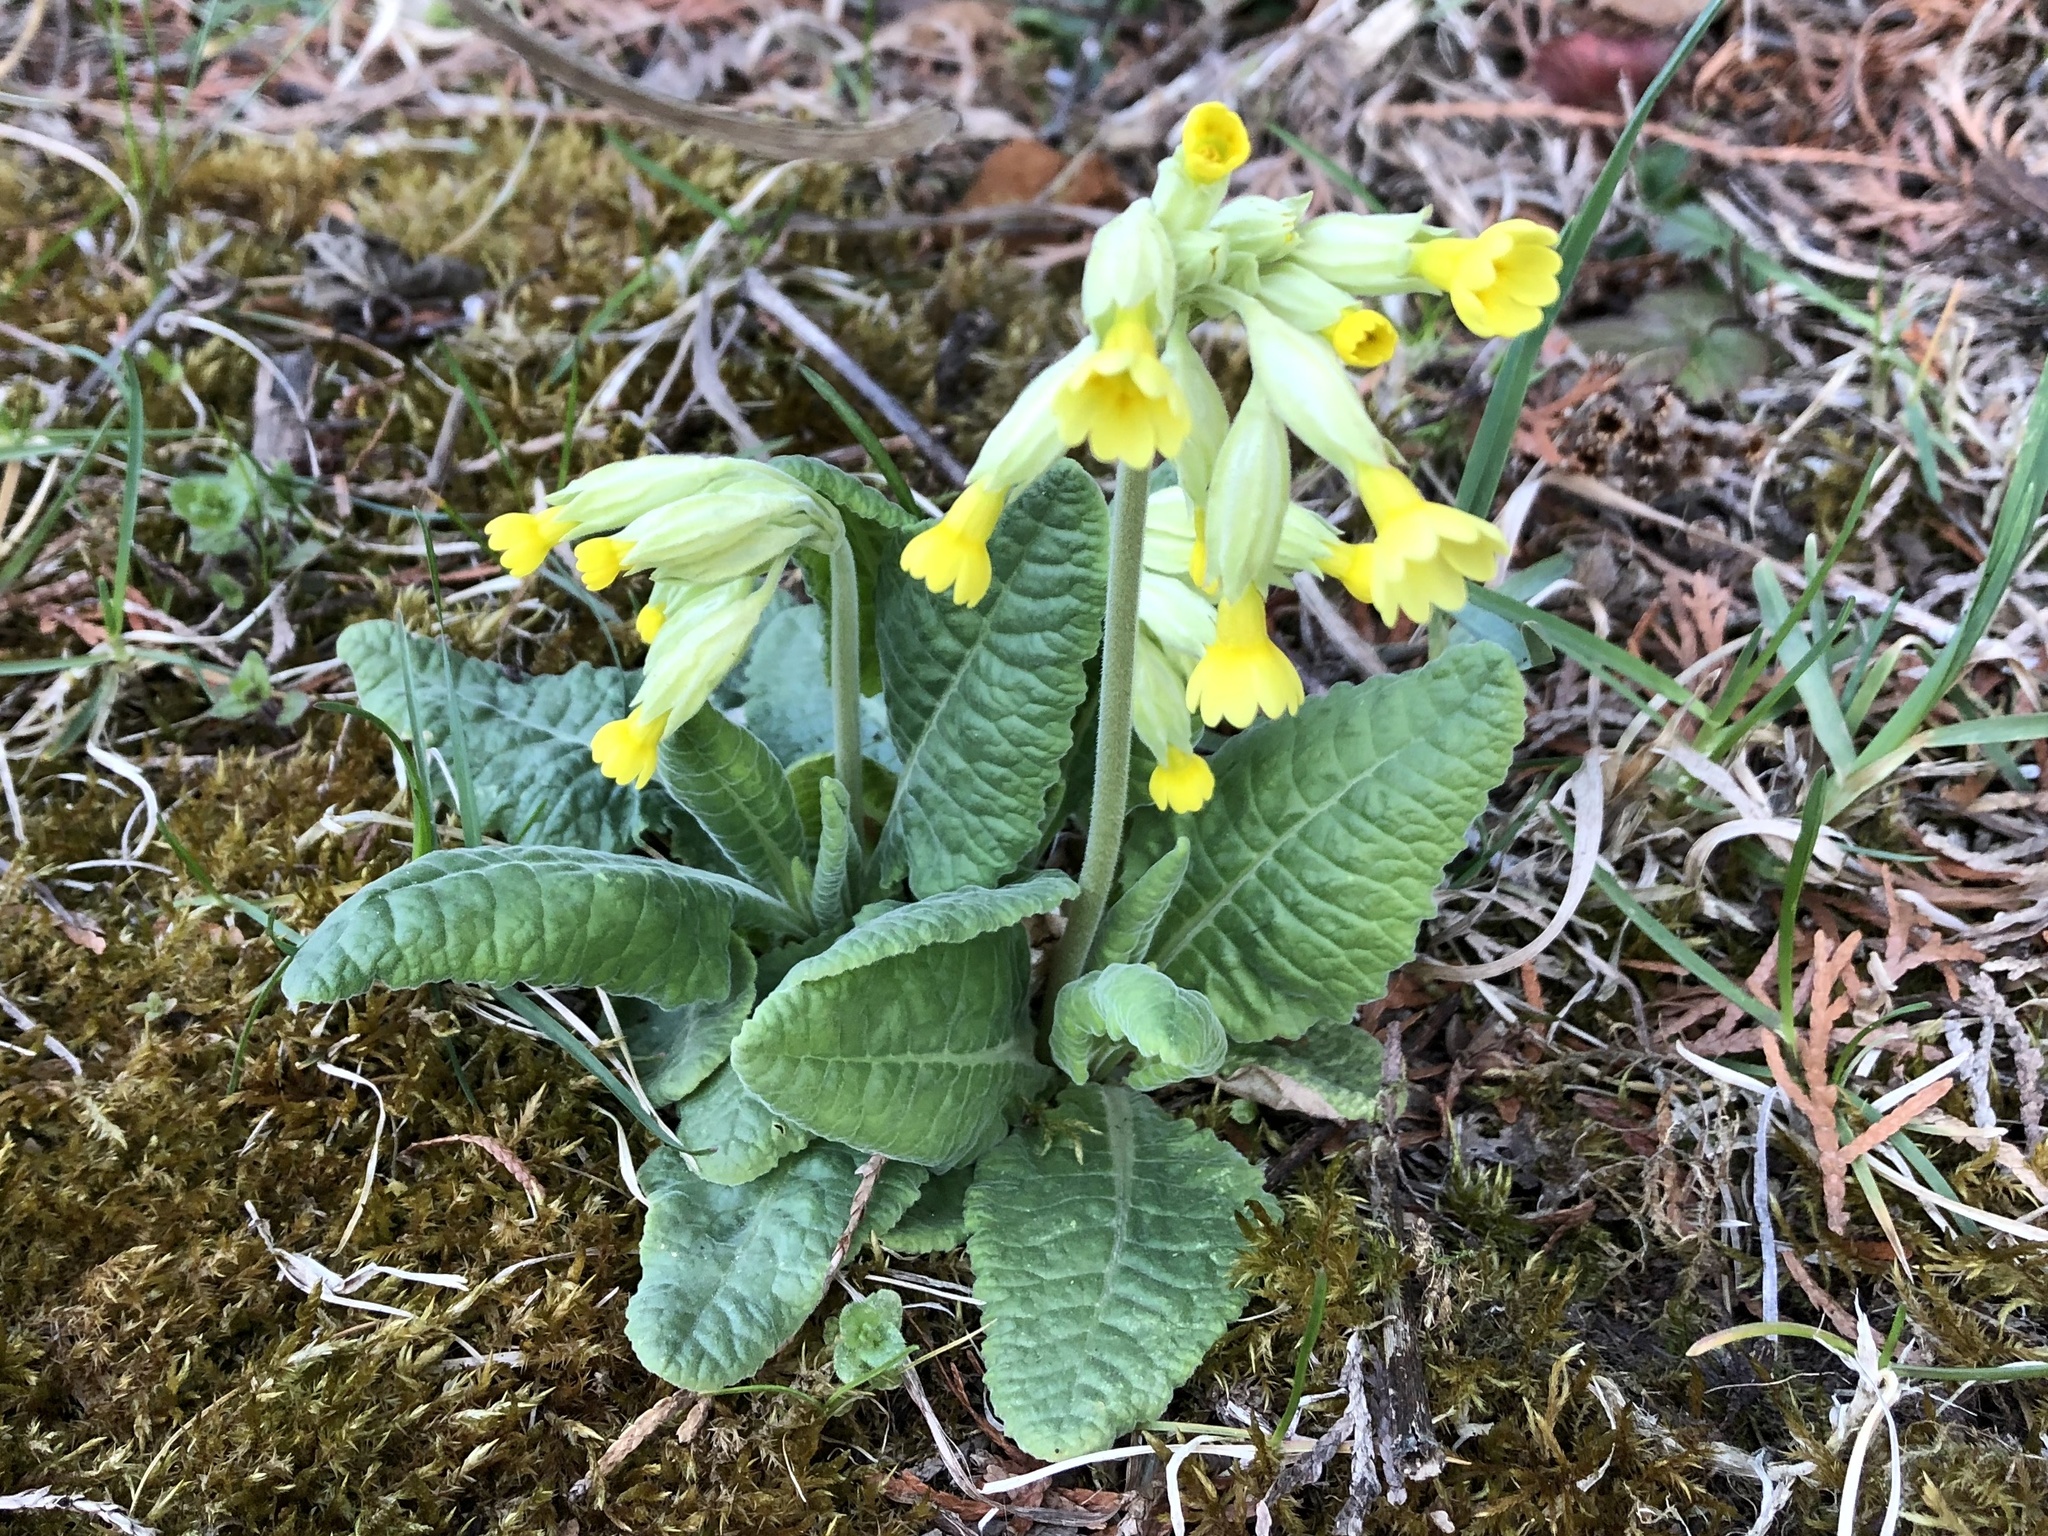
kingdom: Plantae
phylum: Tracheophyta
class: Magnoliopsida
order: Ericales
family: Primulaceae
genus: Primula
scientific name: Primula veris
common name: Cowslip
